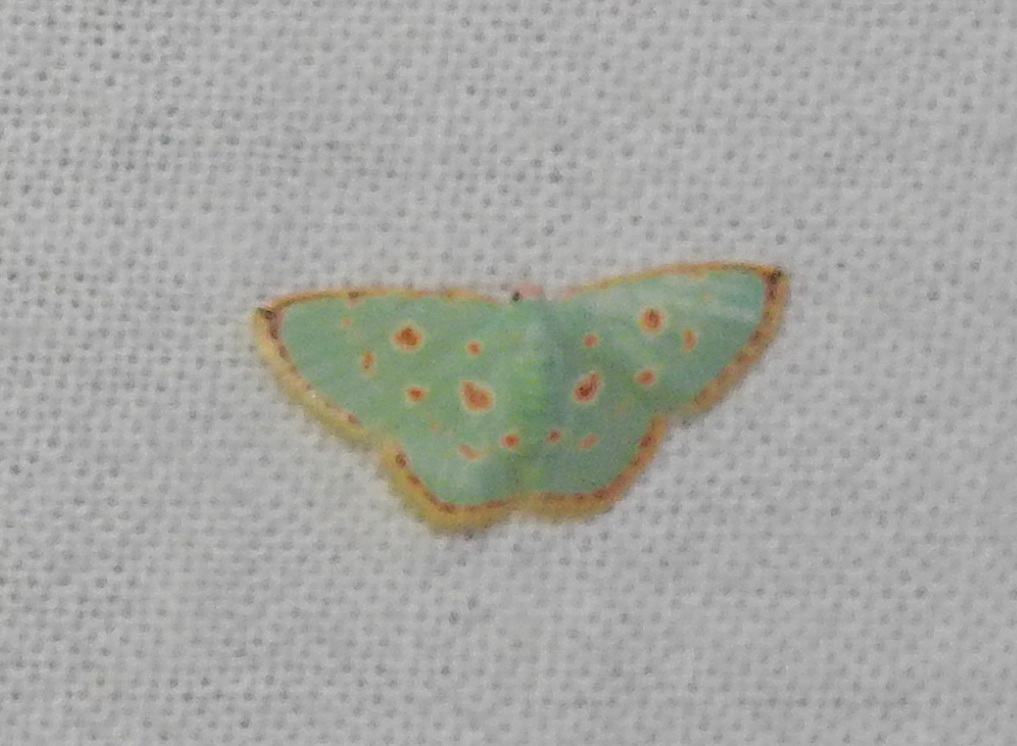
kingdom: Animalia
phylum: Arthropoda
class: Insecta
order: Lepidoptera
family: Geometridae
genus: Comostola
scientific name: Comostola laesaria
